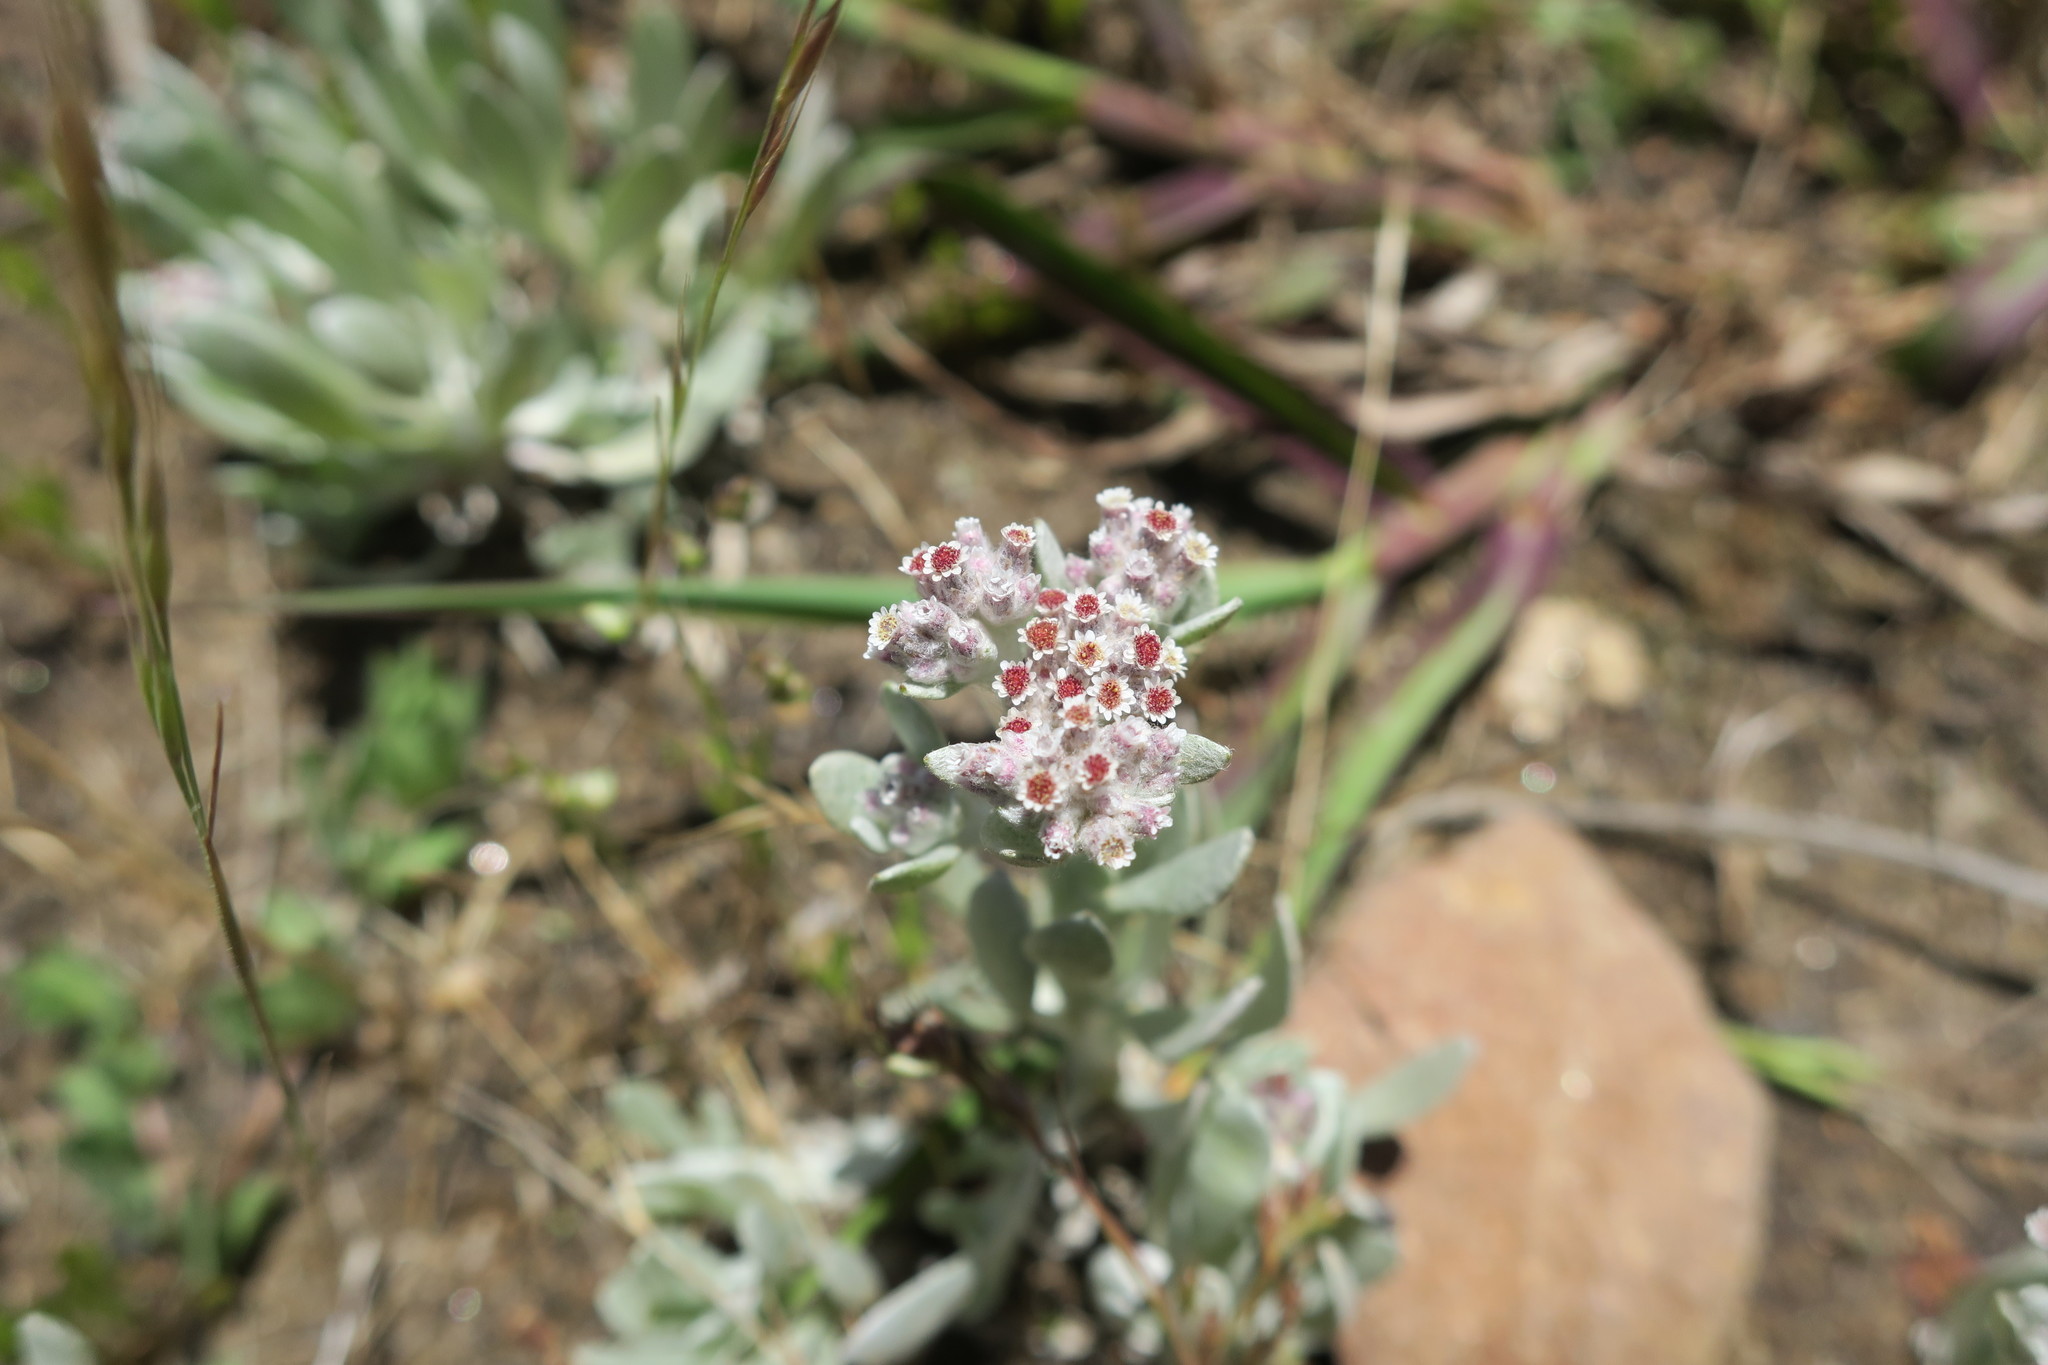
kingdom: Plantae
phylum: Tracheophyta
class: Magnoliopsida
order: Asterales
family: Asteraceae
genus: Vellereophyton
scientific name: Vellereophyton dealbatum
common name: White-cudweed
